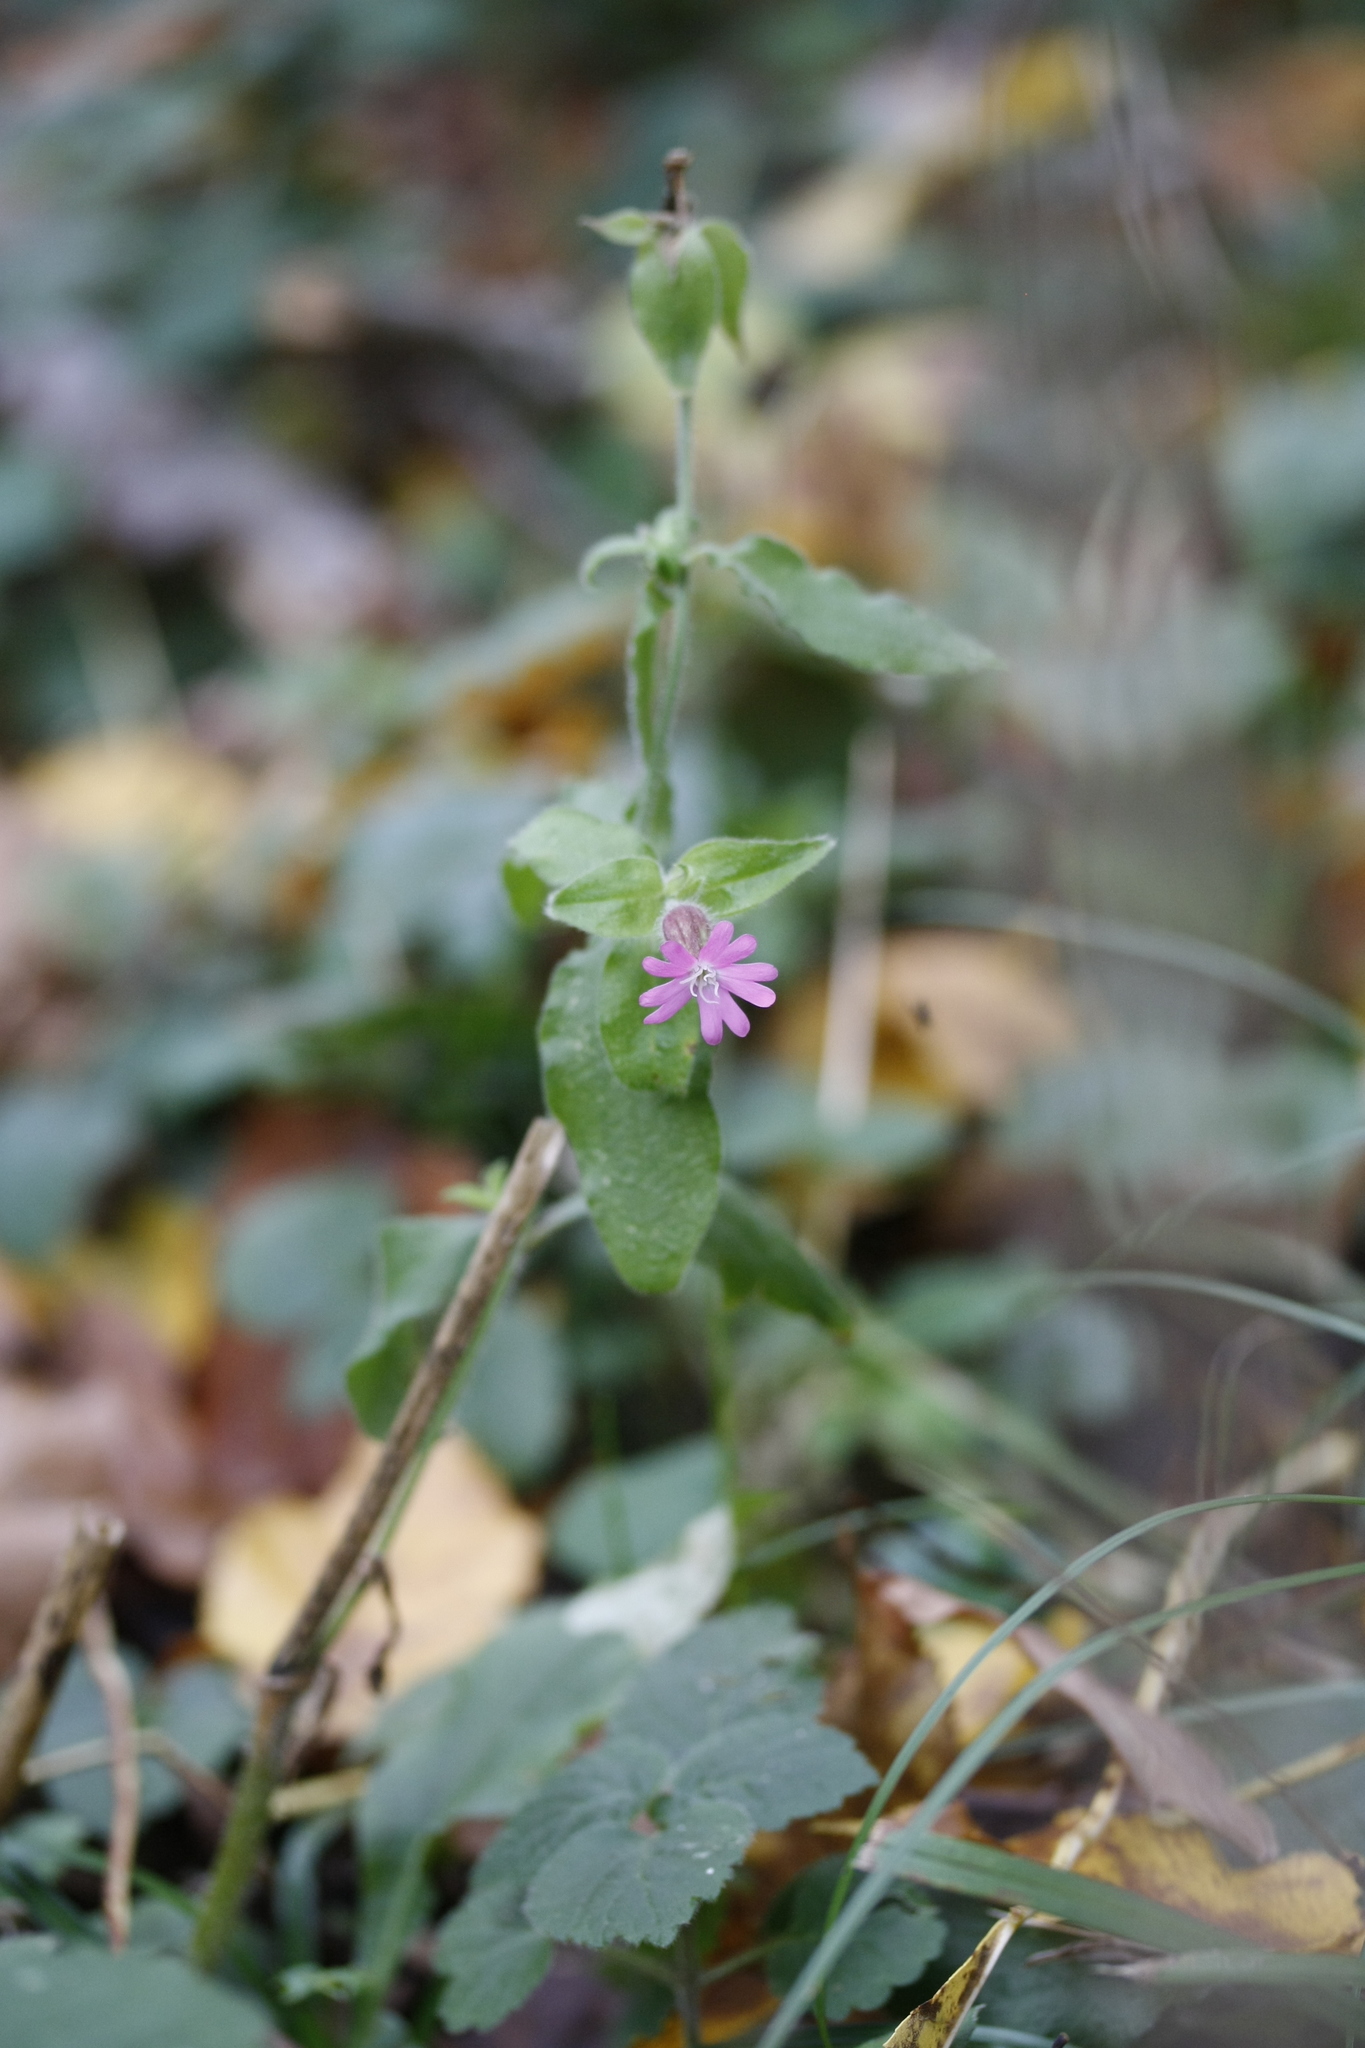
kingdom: Plantae
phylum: Tracheophyta
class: Magnoliopsida
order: Caryophyllales
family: Caryophyllaceae
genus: Silene
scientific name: Silene dioica
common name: Red campion
